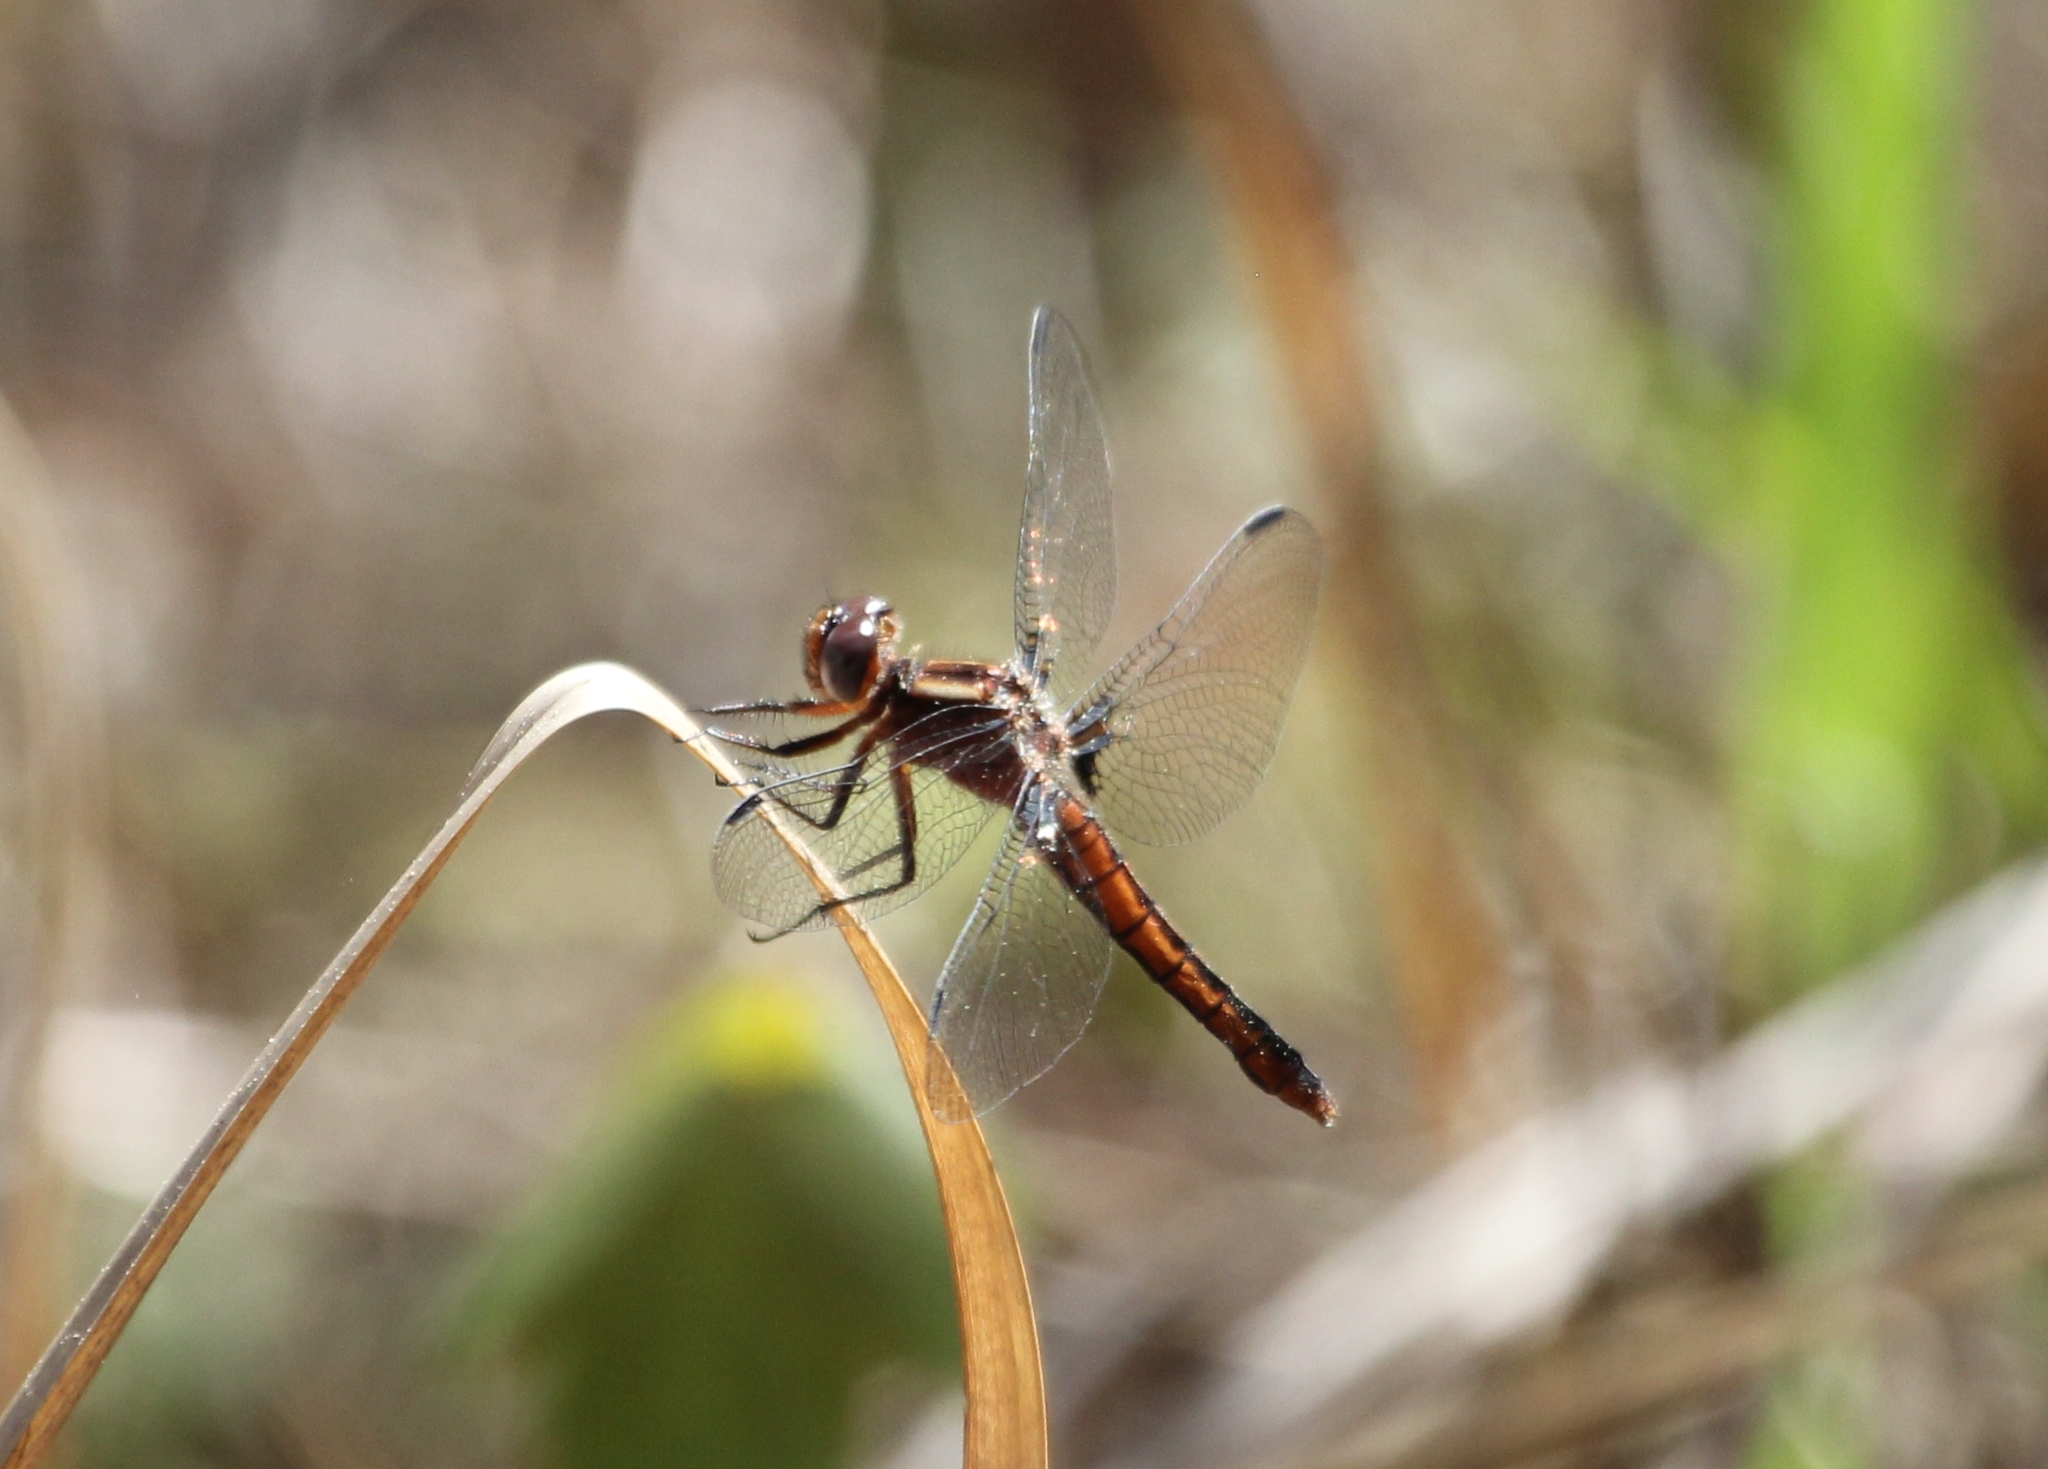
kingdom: Animalia
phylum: Arthropoda
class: Insecta
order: Odonata
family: Libellulidae
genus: Ladona
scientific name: Ladona deplanata
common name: Blue corporal
